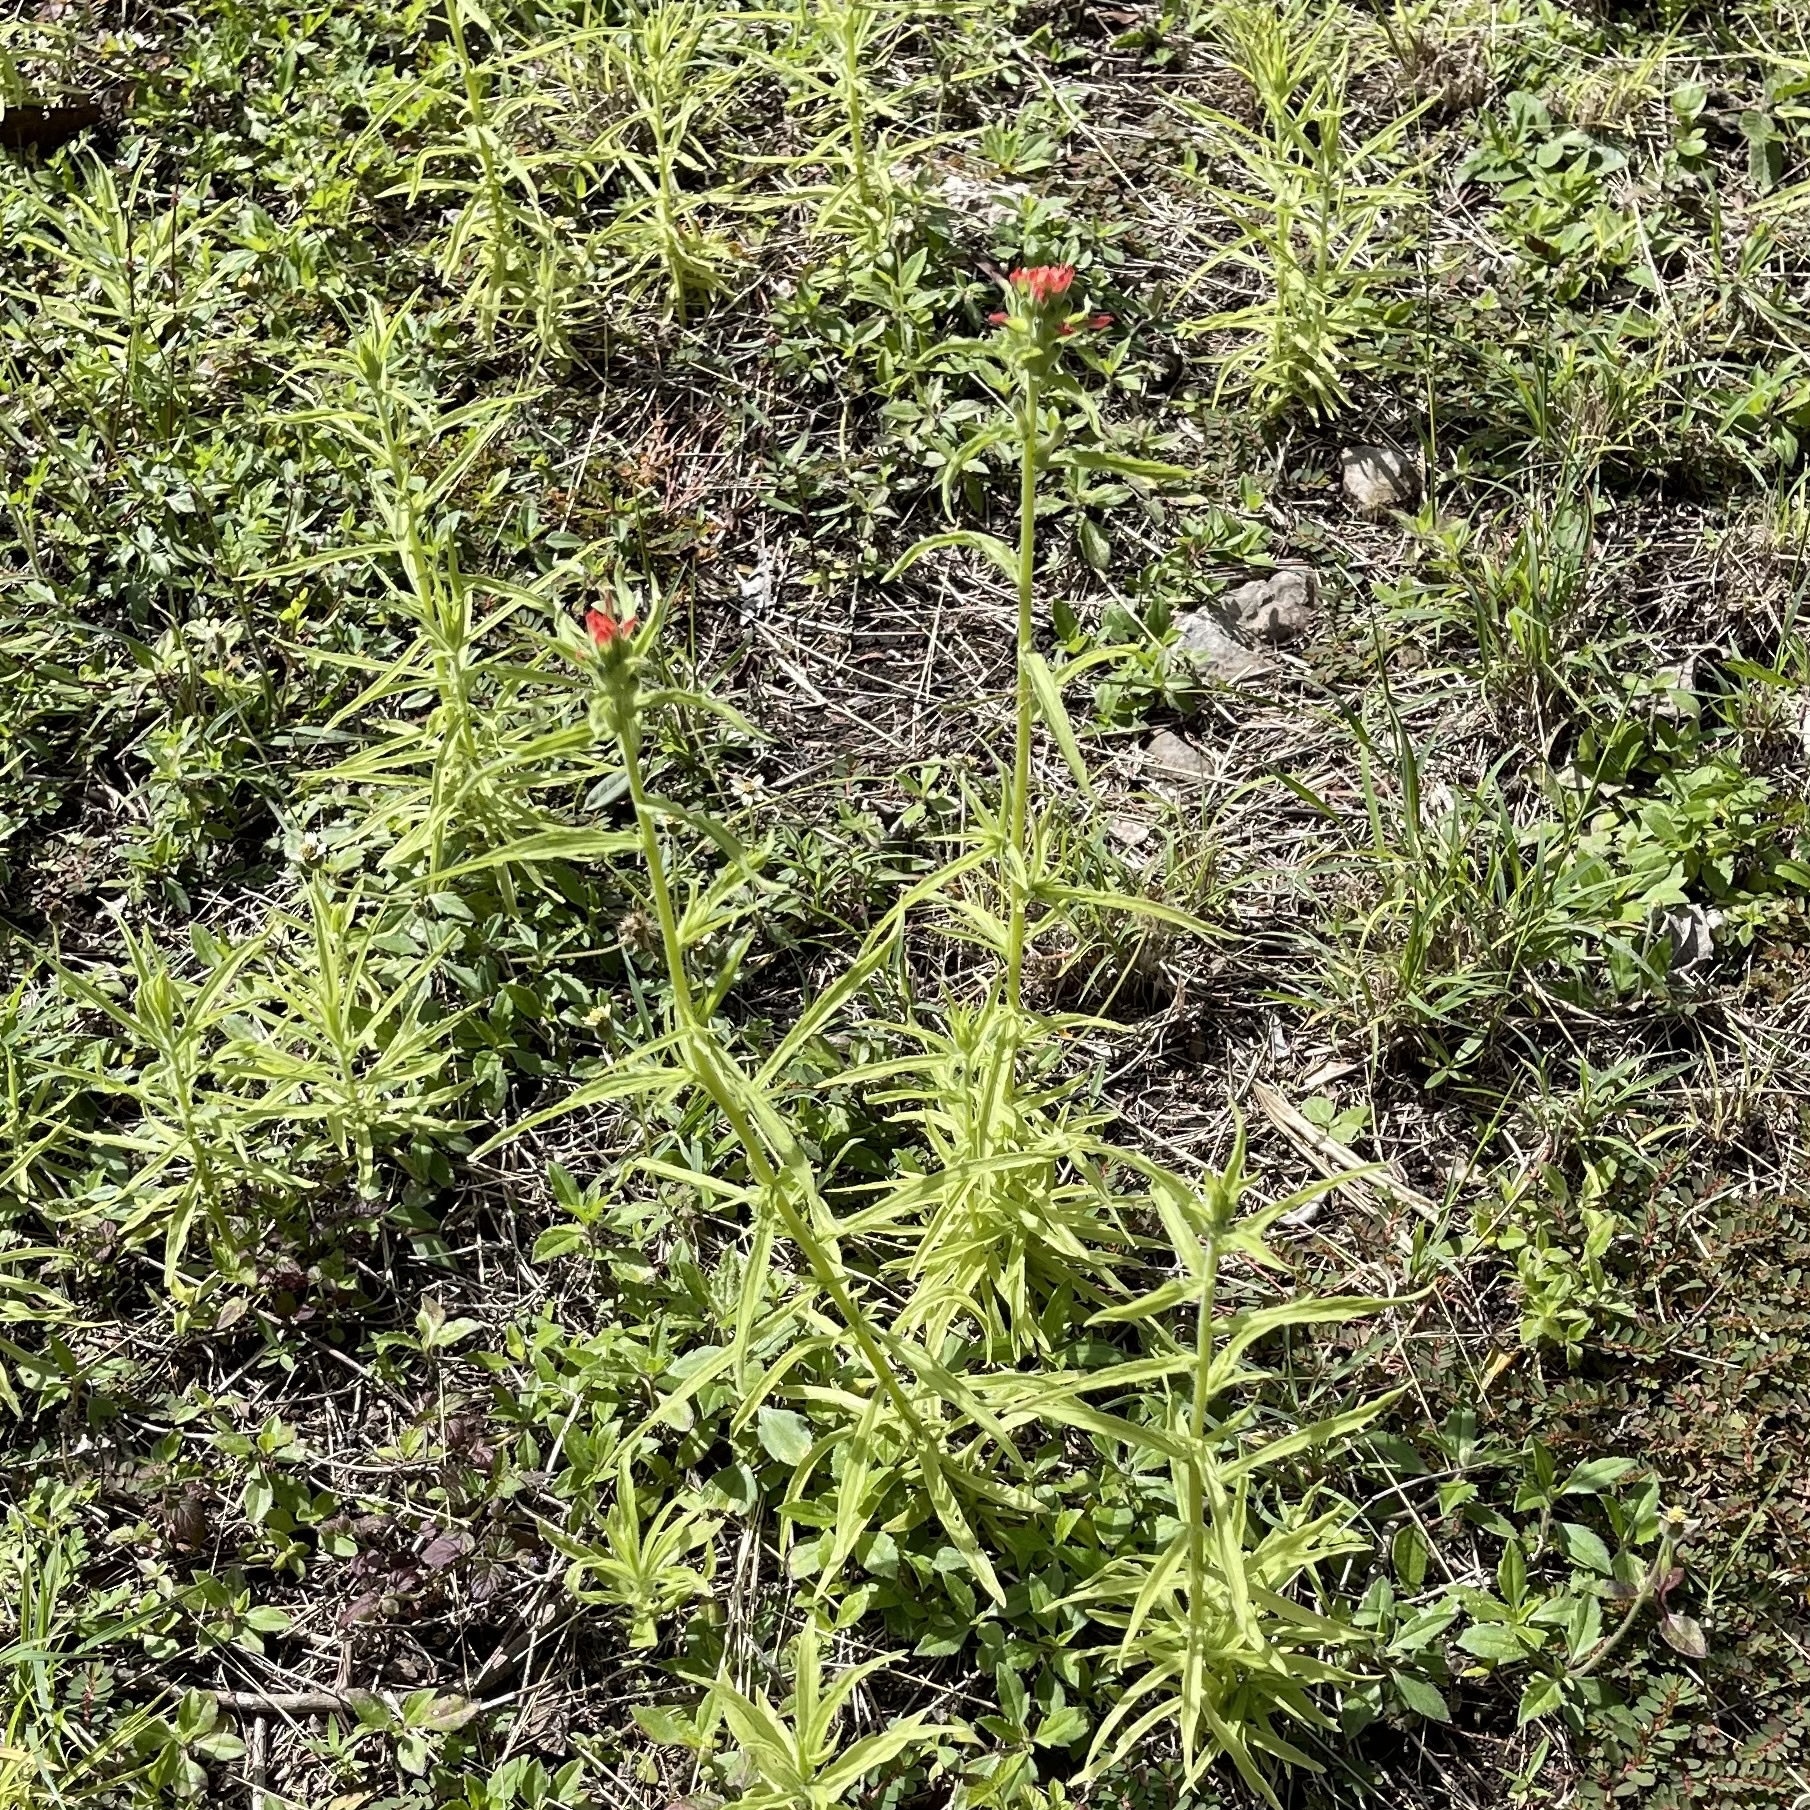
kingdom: Plantae
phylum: Tracheophyta
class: Magnoliopsida
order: Lamiales
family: Orobanchaceae
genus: Castilleja
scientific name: Castilleja arvensis
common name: Indian paintbrush
